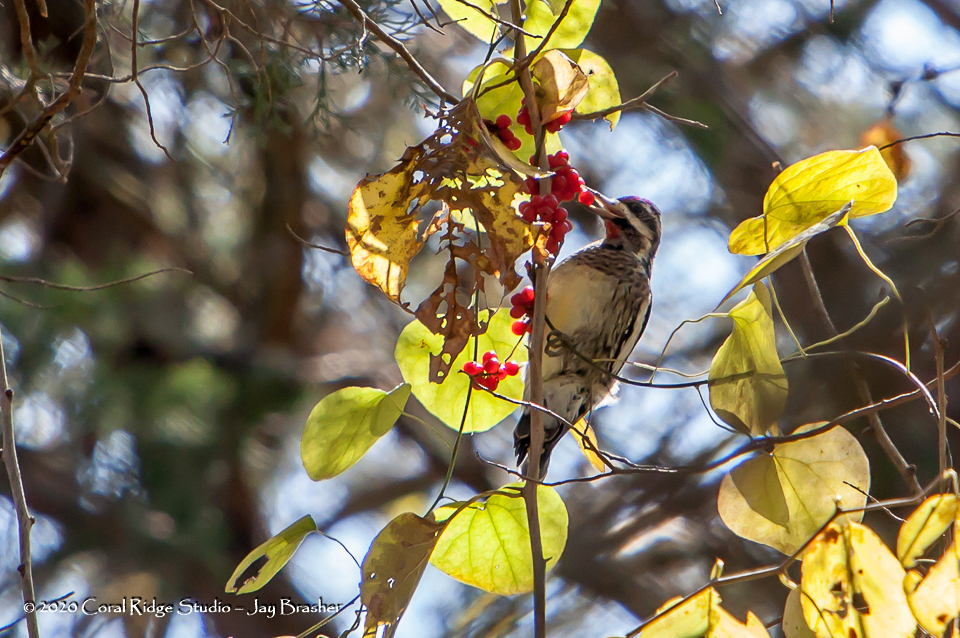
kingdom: Animalia
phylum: Chordata
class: Aves
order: Piciformes
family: Picidae
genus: Sphyrapicus
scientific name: Sphyrapicus varius
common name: Yellow-bellied sapsucker
